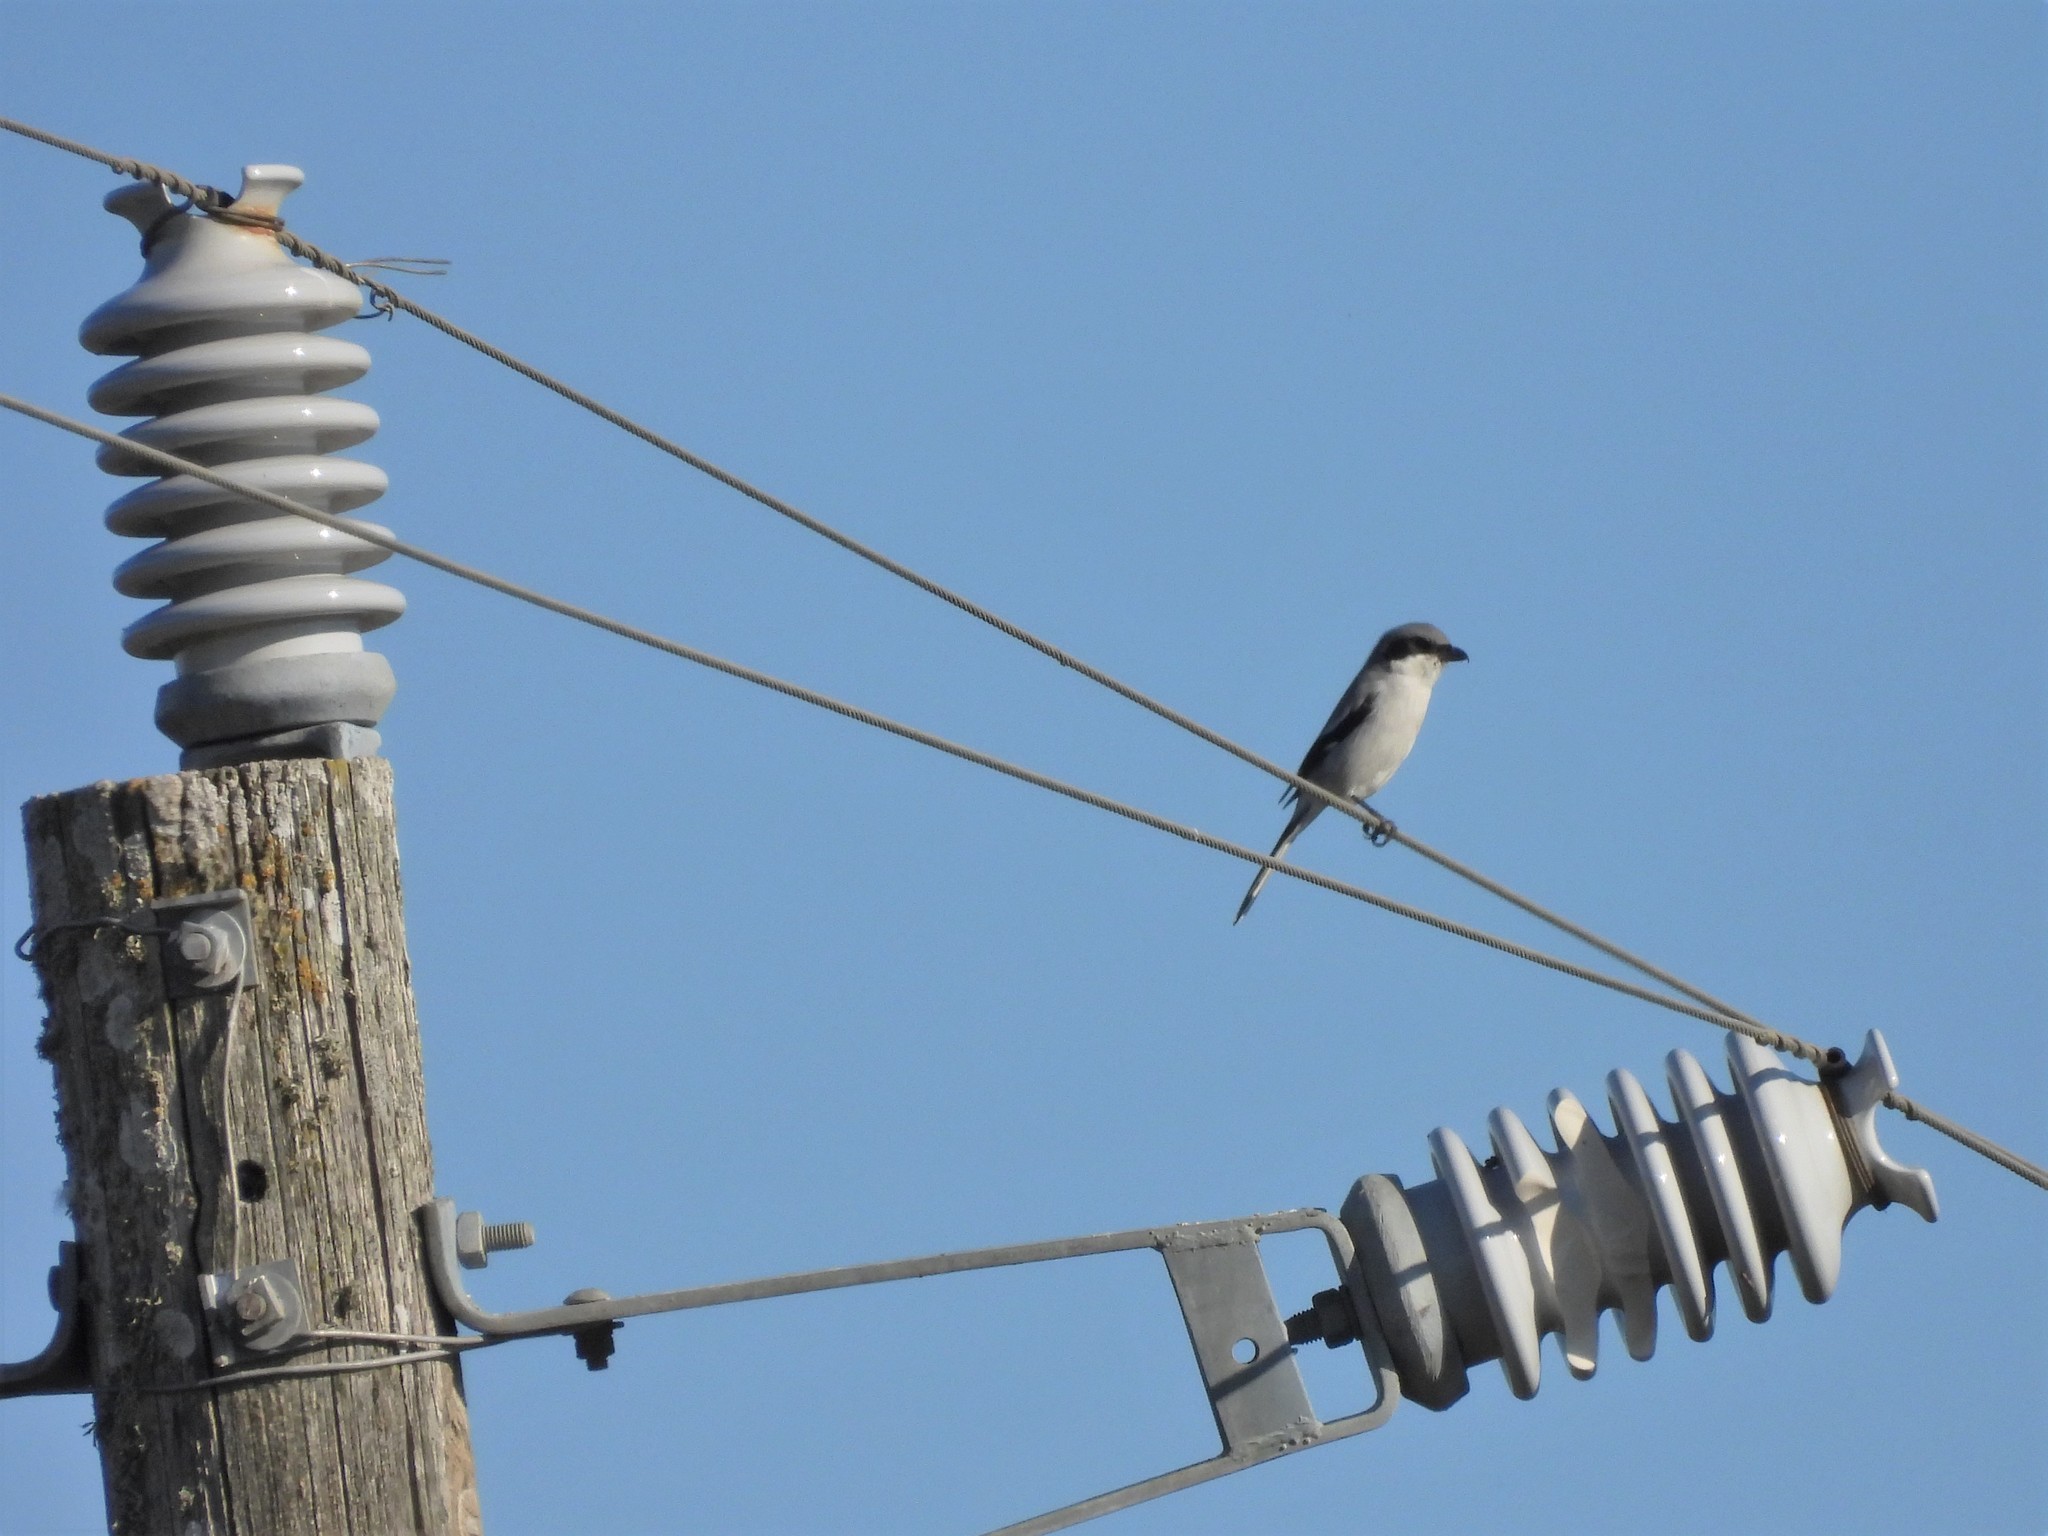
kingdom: Animalia
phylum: Chordata
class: Aves
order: Passeriformes
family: Laniidae
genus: Lanius
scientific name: Lanius ludovicianus
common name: Loggerhead shrike
